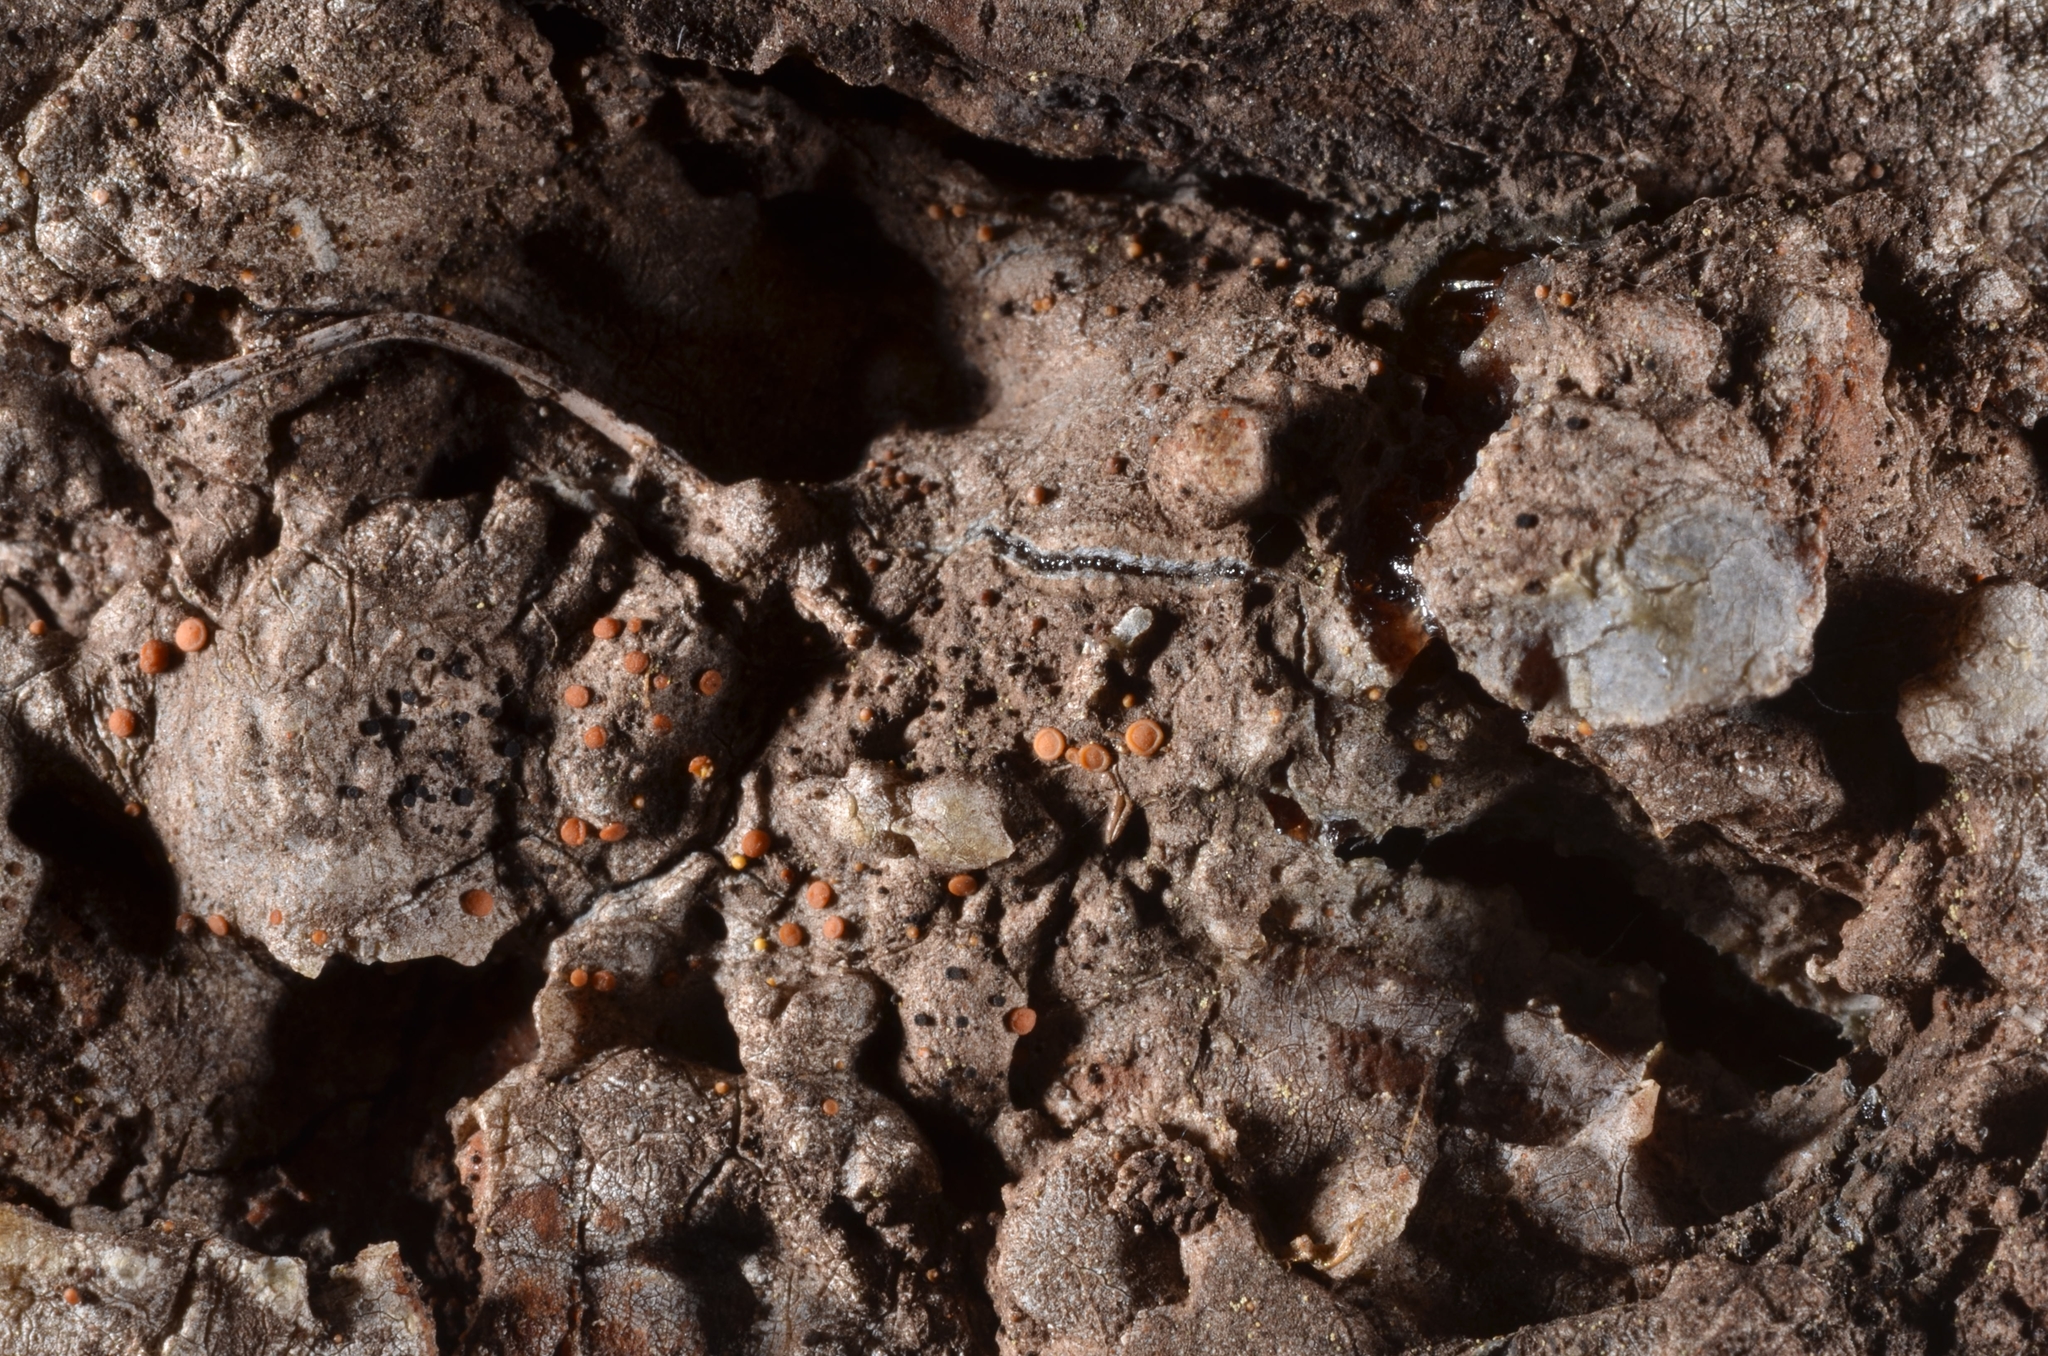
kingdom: Fungi
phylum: Ascomycota
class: Sareomycetes
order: Sareales
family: Sareaceae
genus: Sarea
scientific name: Sarea resinae
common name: Sarea lichen
